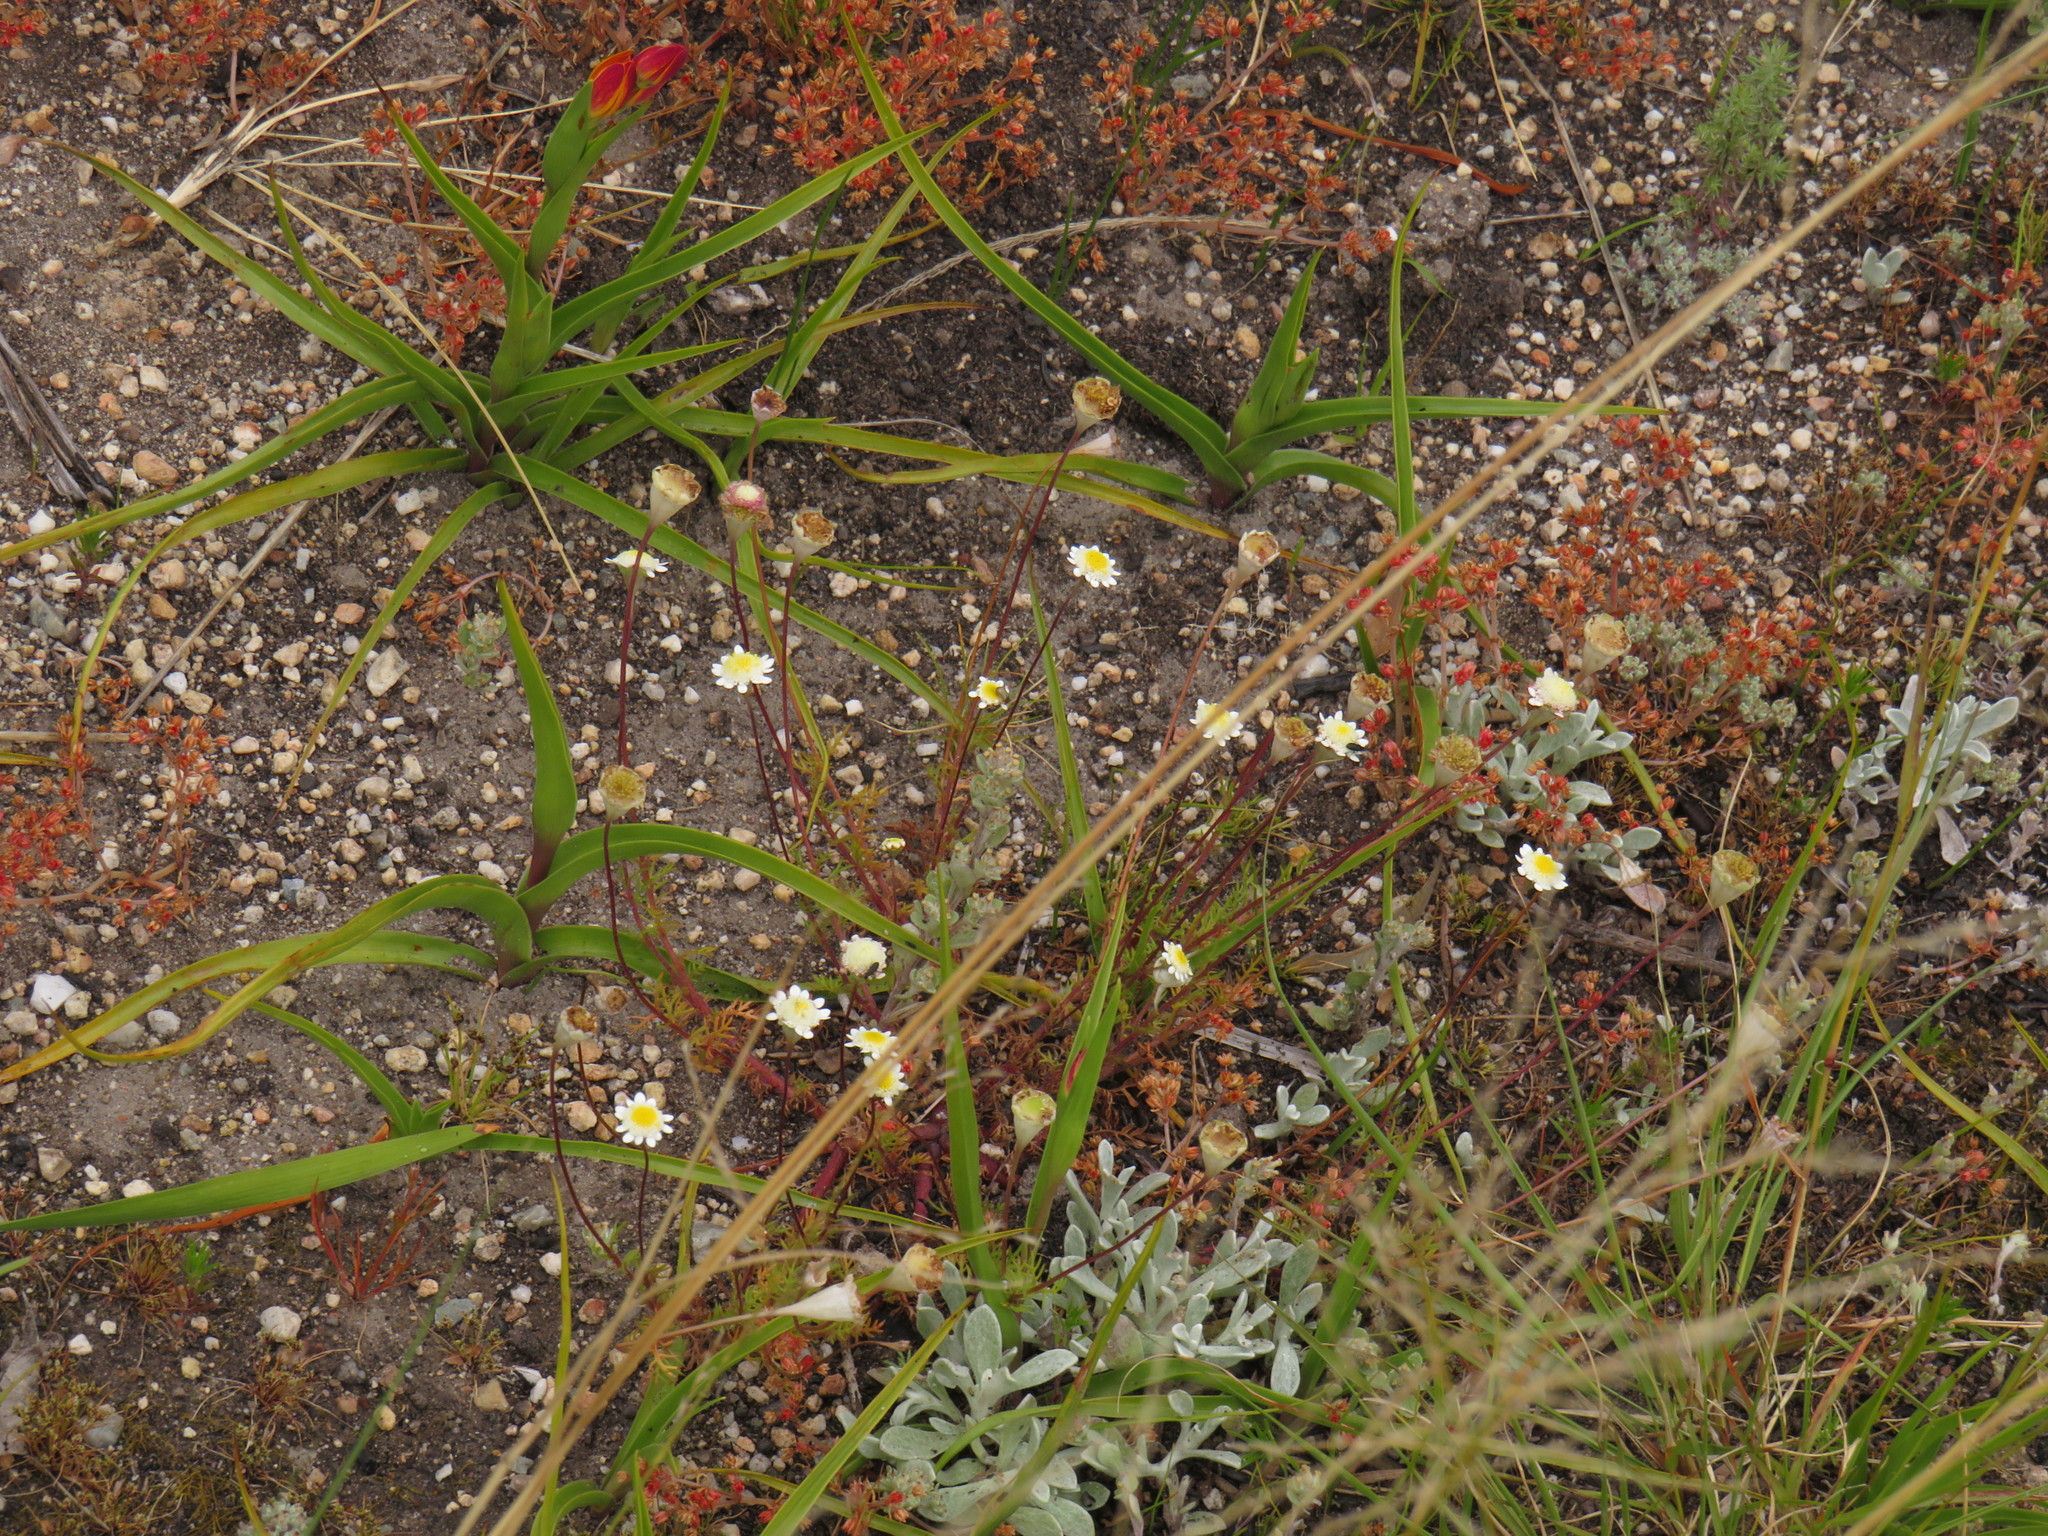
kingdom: Plantae
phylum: Tracheophyta
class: Magnoliopsida
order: Asterales
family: Asteraceae
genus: Cotula
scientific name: Cotula turbinata
